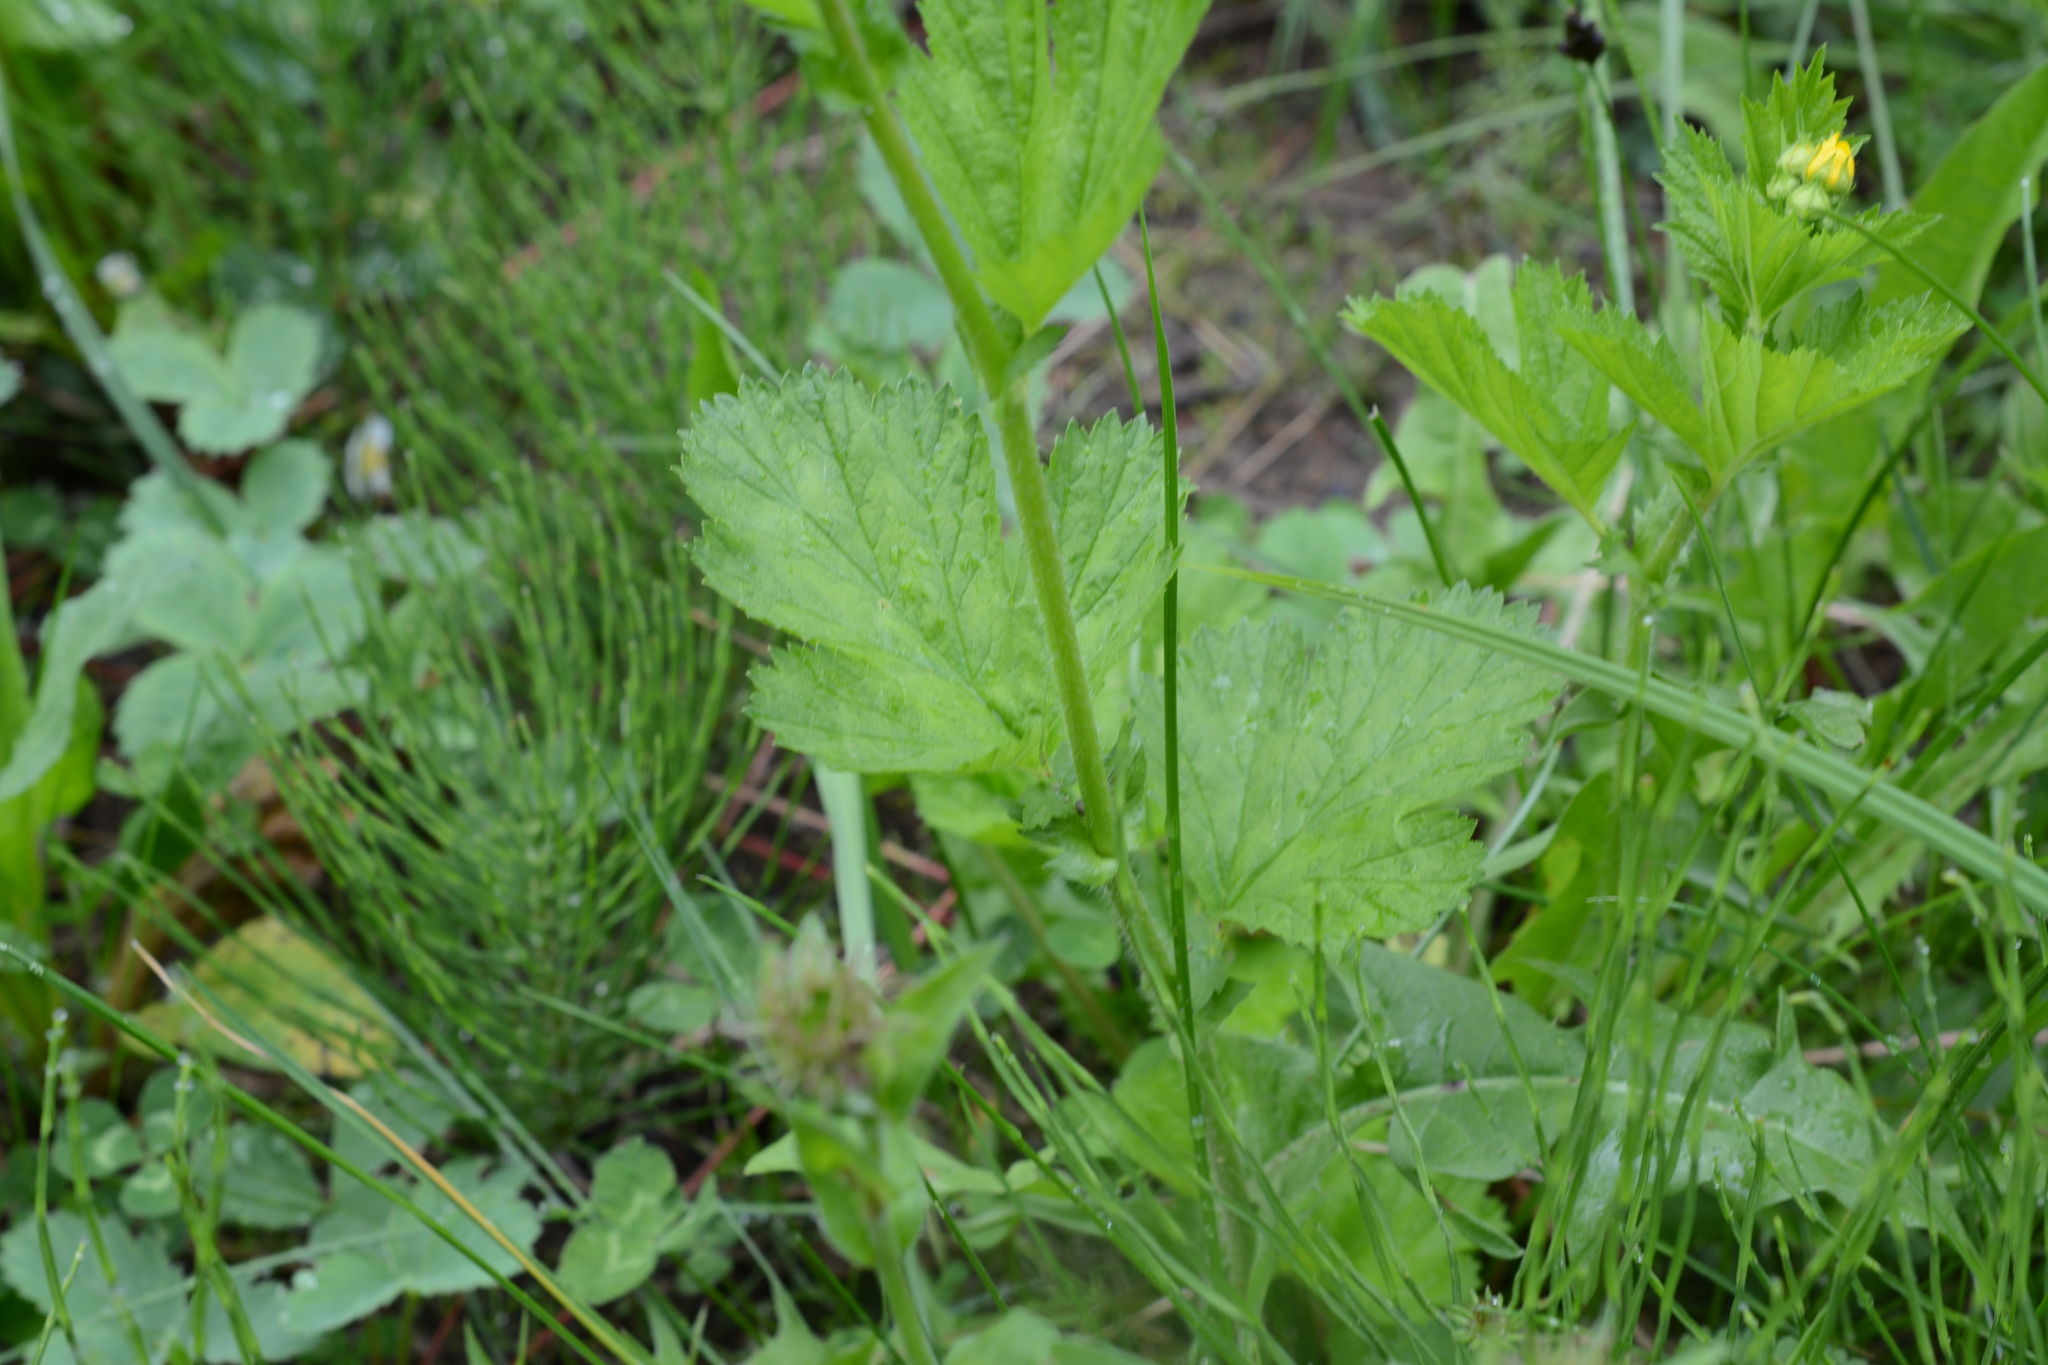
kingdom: Plantae
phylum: Tracheophyta
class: Magnoliopsida
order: Rosales
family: Rosaceae
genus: Geum
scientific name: Geum macrophyllum
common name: Large-leaved avens
